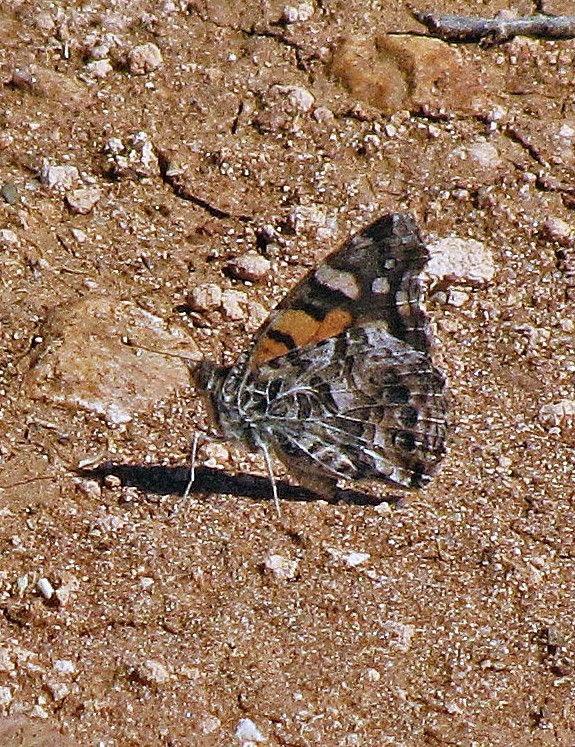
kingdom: Animalia
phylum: Arthropoda
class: Insecta
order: Lepidoptera
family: Nymphalidae
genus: Vanessa
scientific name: Vanessa carye
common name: Subtropical lady
